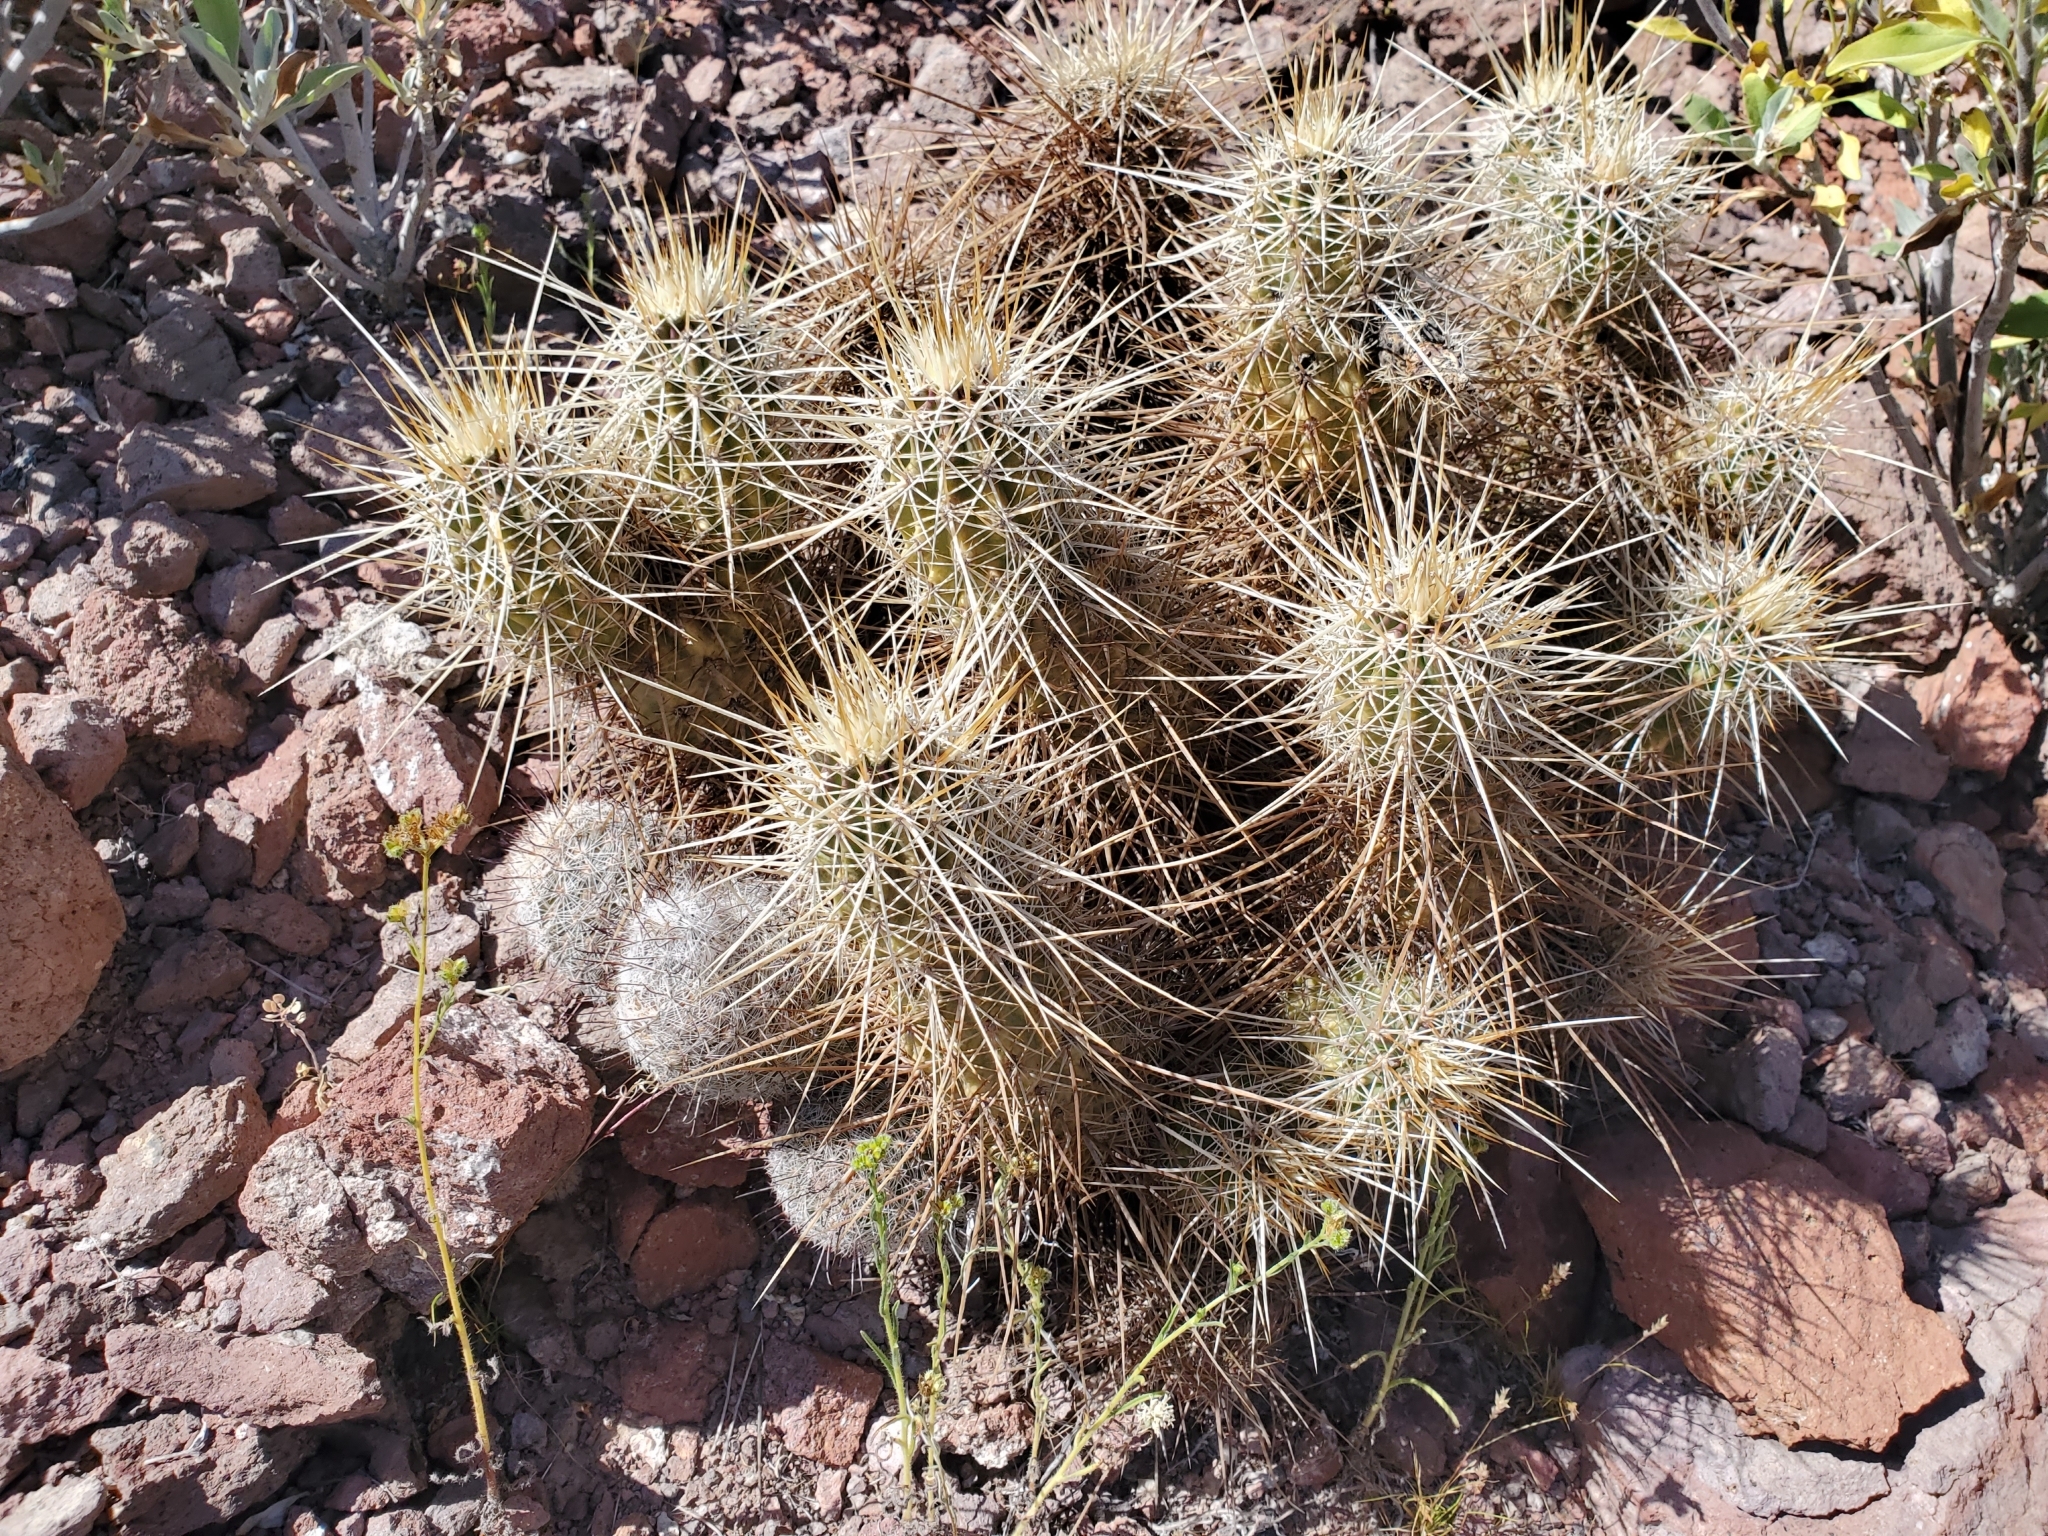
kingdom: Plantae
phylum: Tracheophyta
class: Magnoliopsida
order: Caryophyllales
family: Cactaceae
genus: Echinocereus
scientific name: Echinocereus engelmannii
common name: Engelmann's hedgehog cactus
